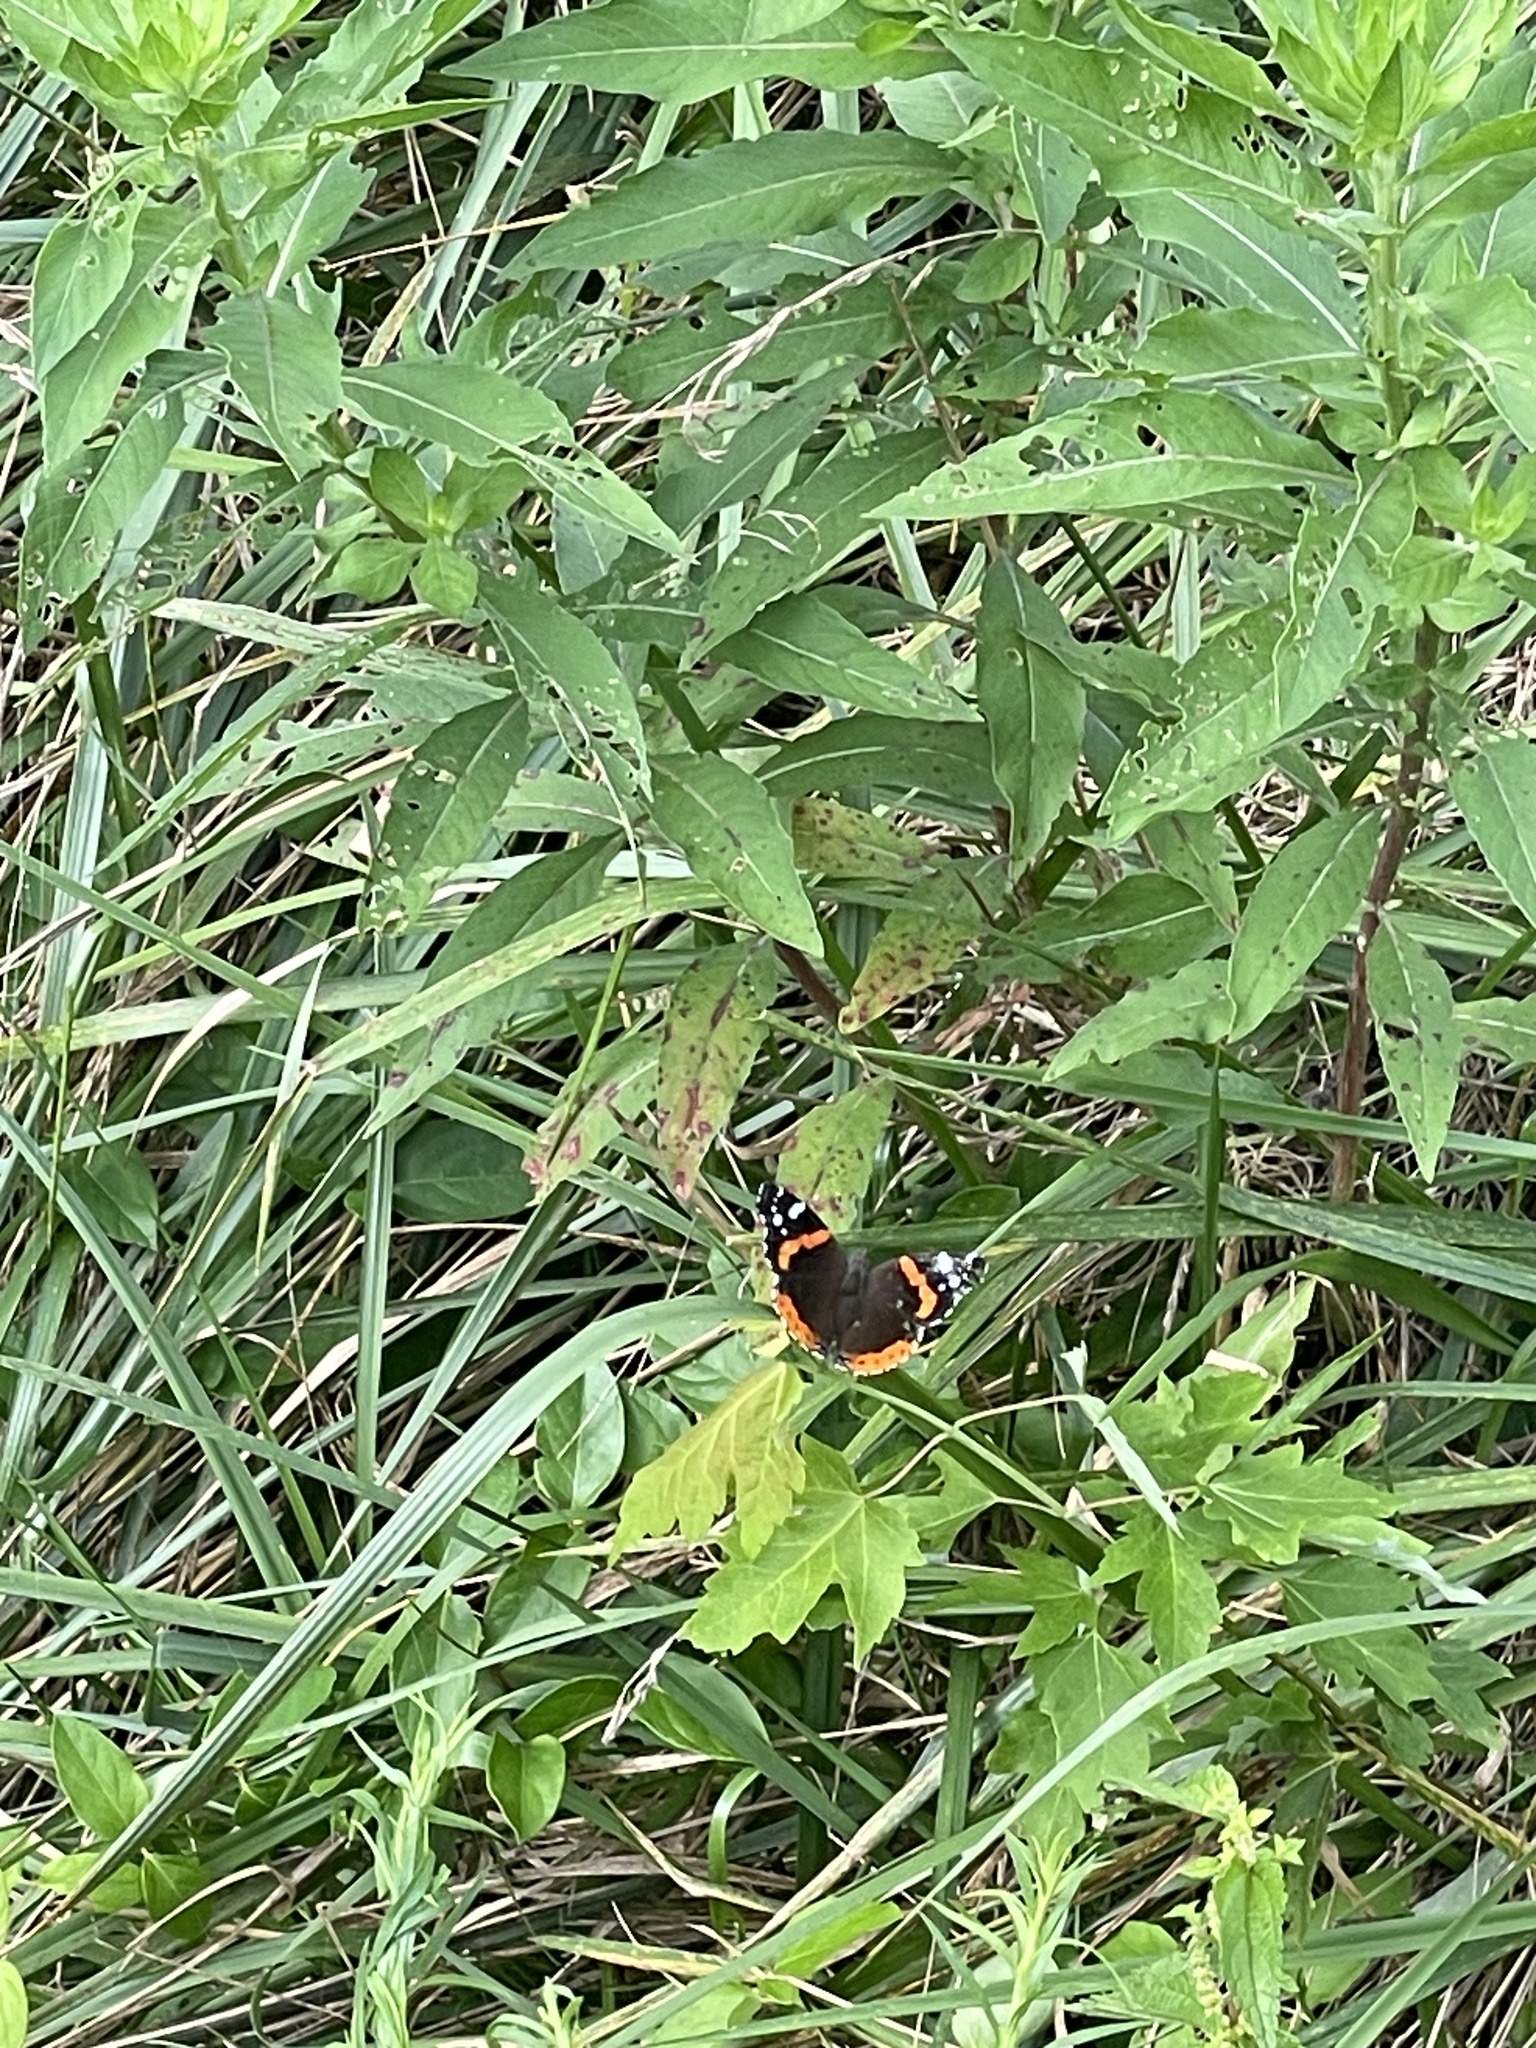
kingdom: Animalia
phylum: Arthropoda
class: Insecta
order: Lepidoptera
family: Nymphalidae
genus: Vanessa
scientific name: Vanessa atalanta
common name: Red admiral
